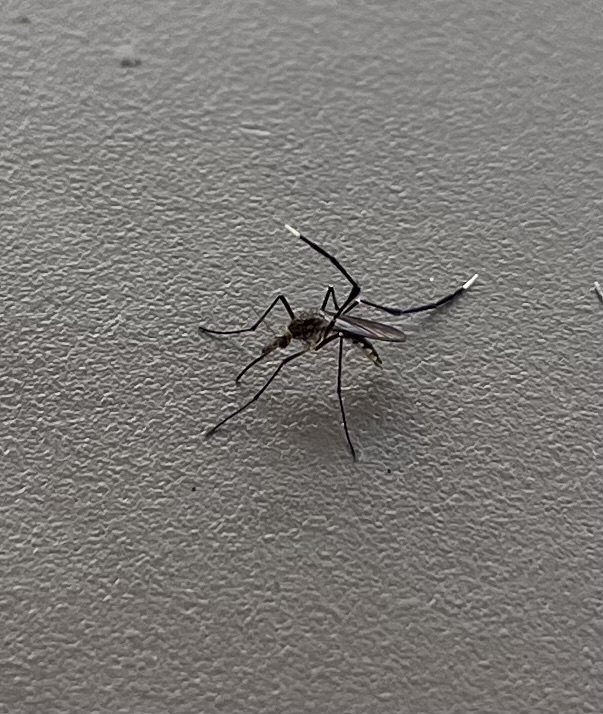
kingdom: Animalia
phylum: Arthropoda
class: Insecta
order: Diptera
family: Culicidae
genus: Psorophora
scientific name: Psorophora ferox
